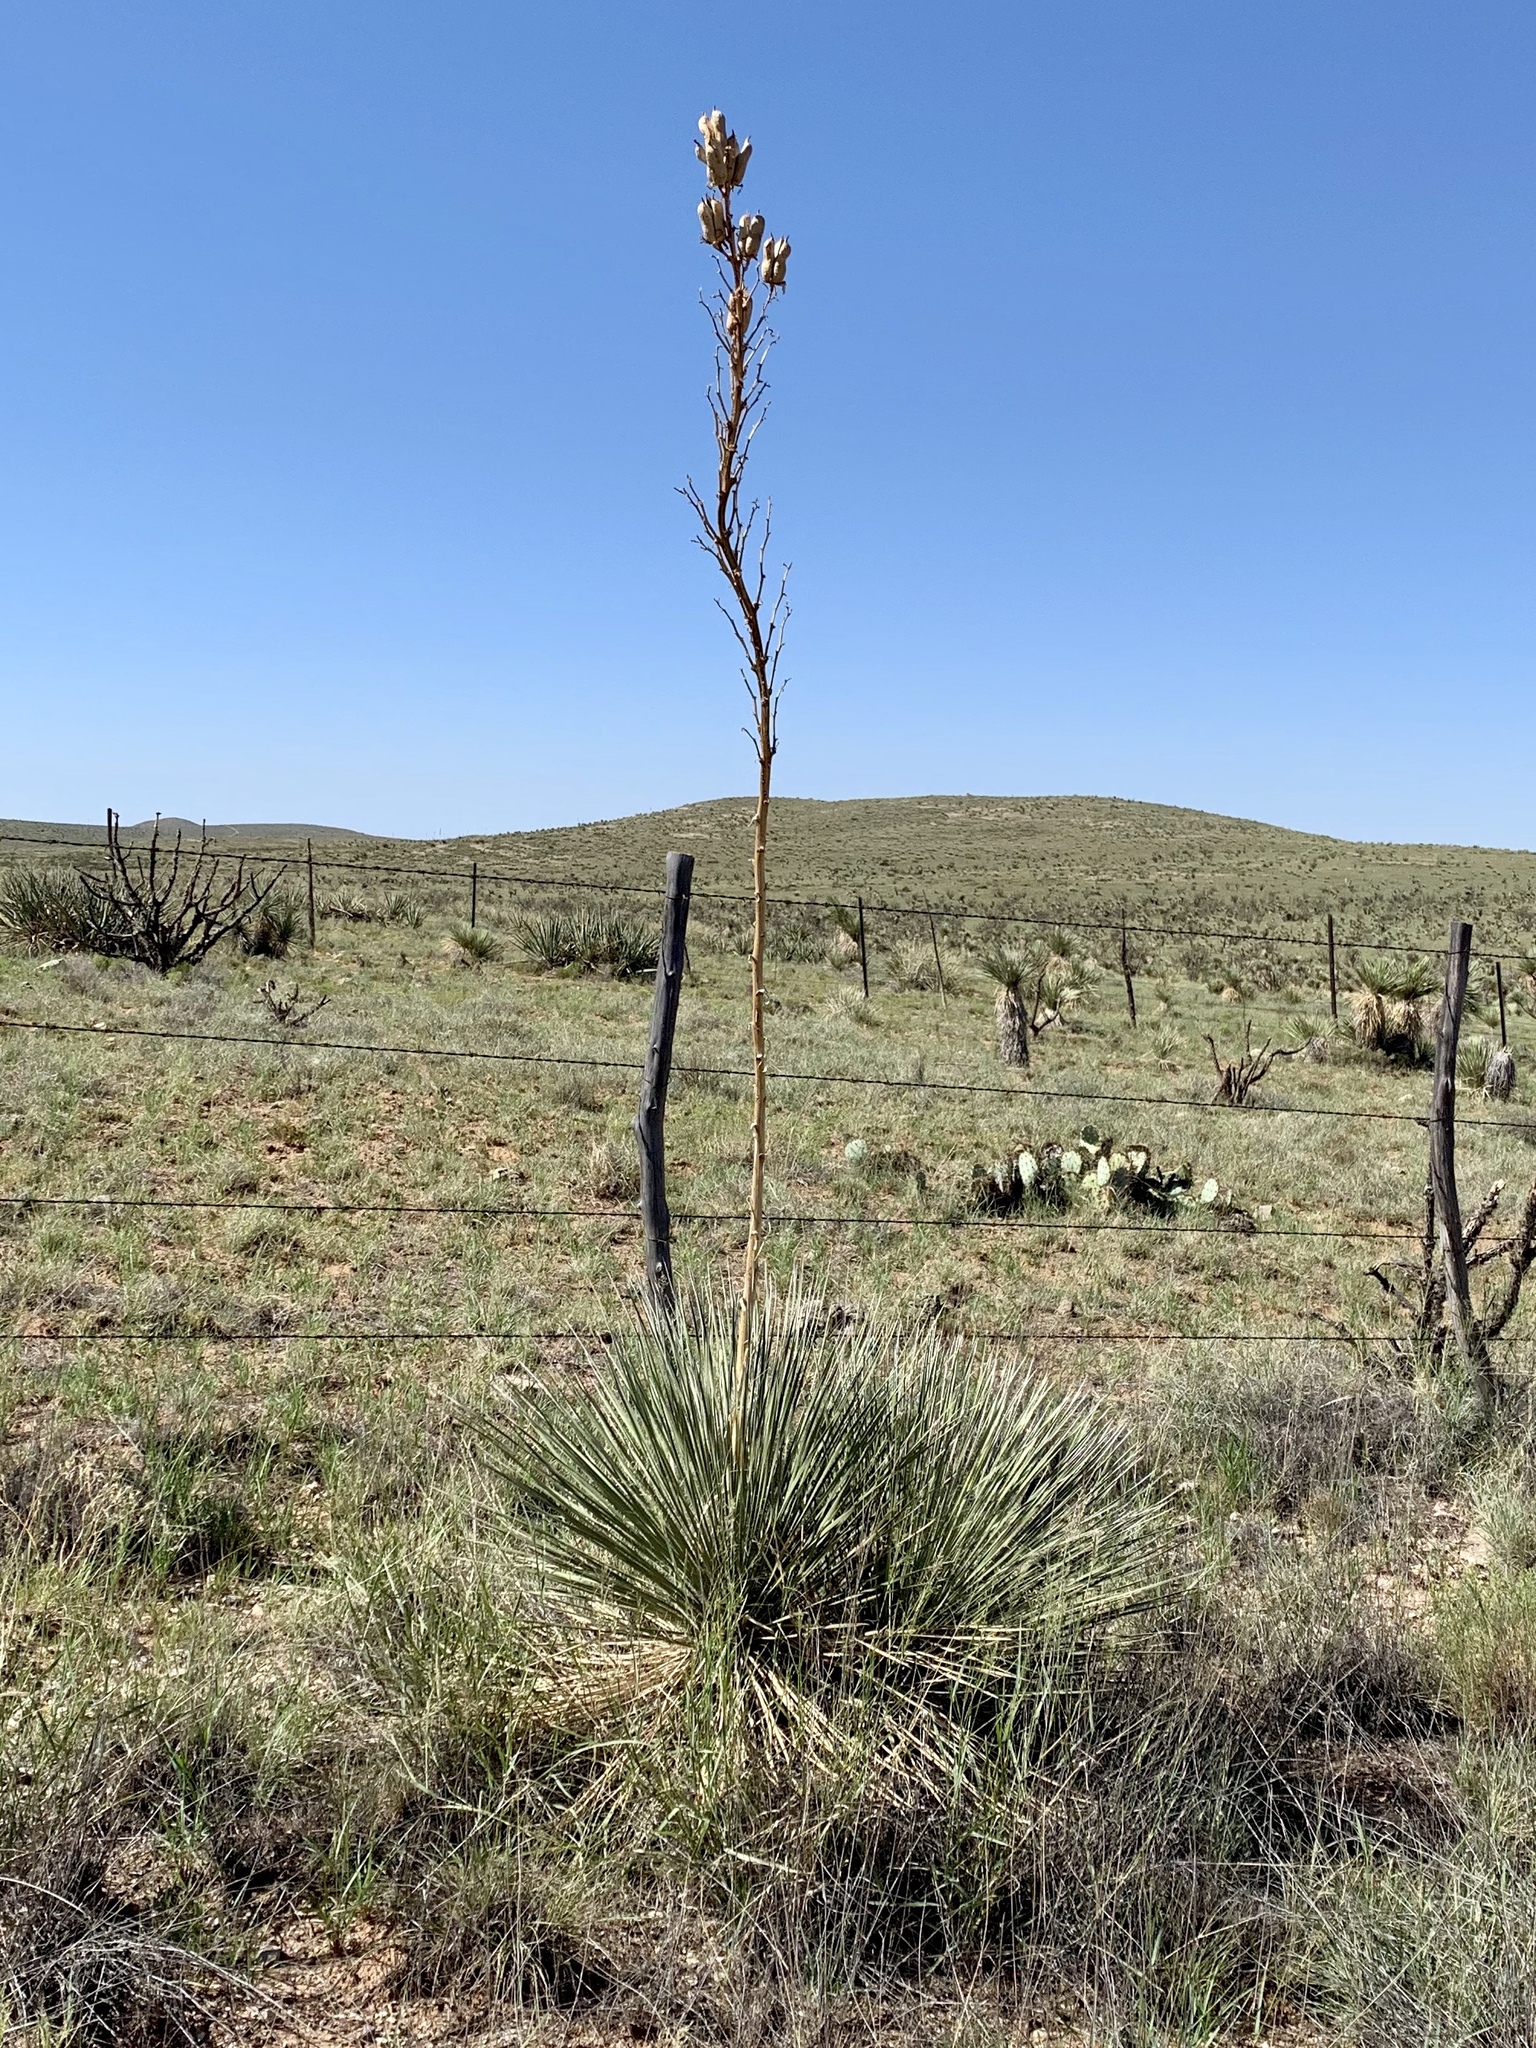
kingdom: Plantae
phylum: Tracheophyta
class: Liliopsida
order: Asparagales
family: Asparagaceae
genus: Yucca
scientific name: Yucca elata
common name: Palmella
